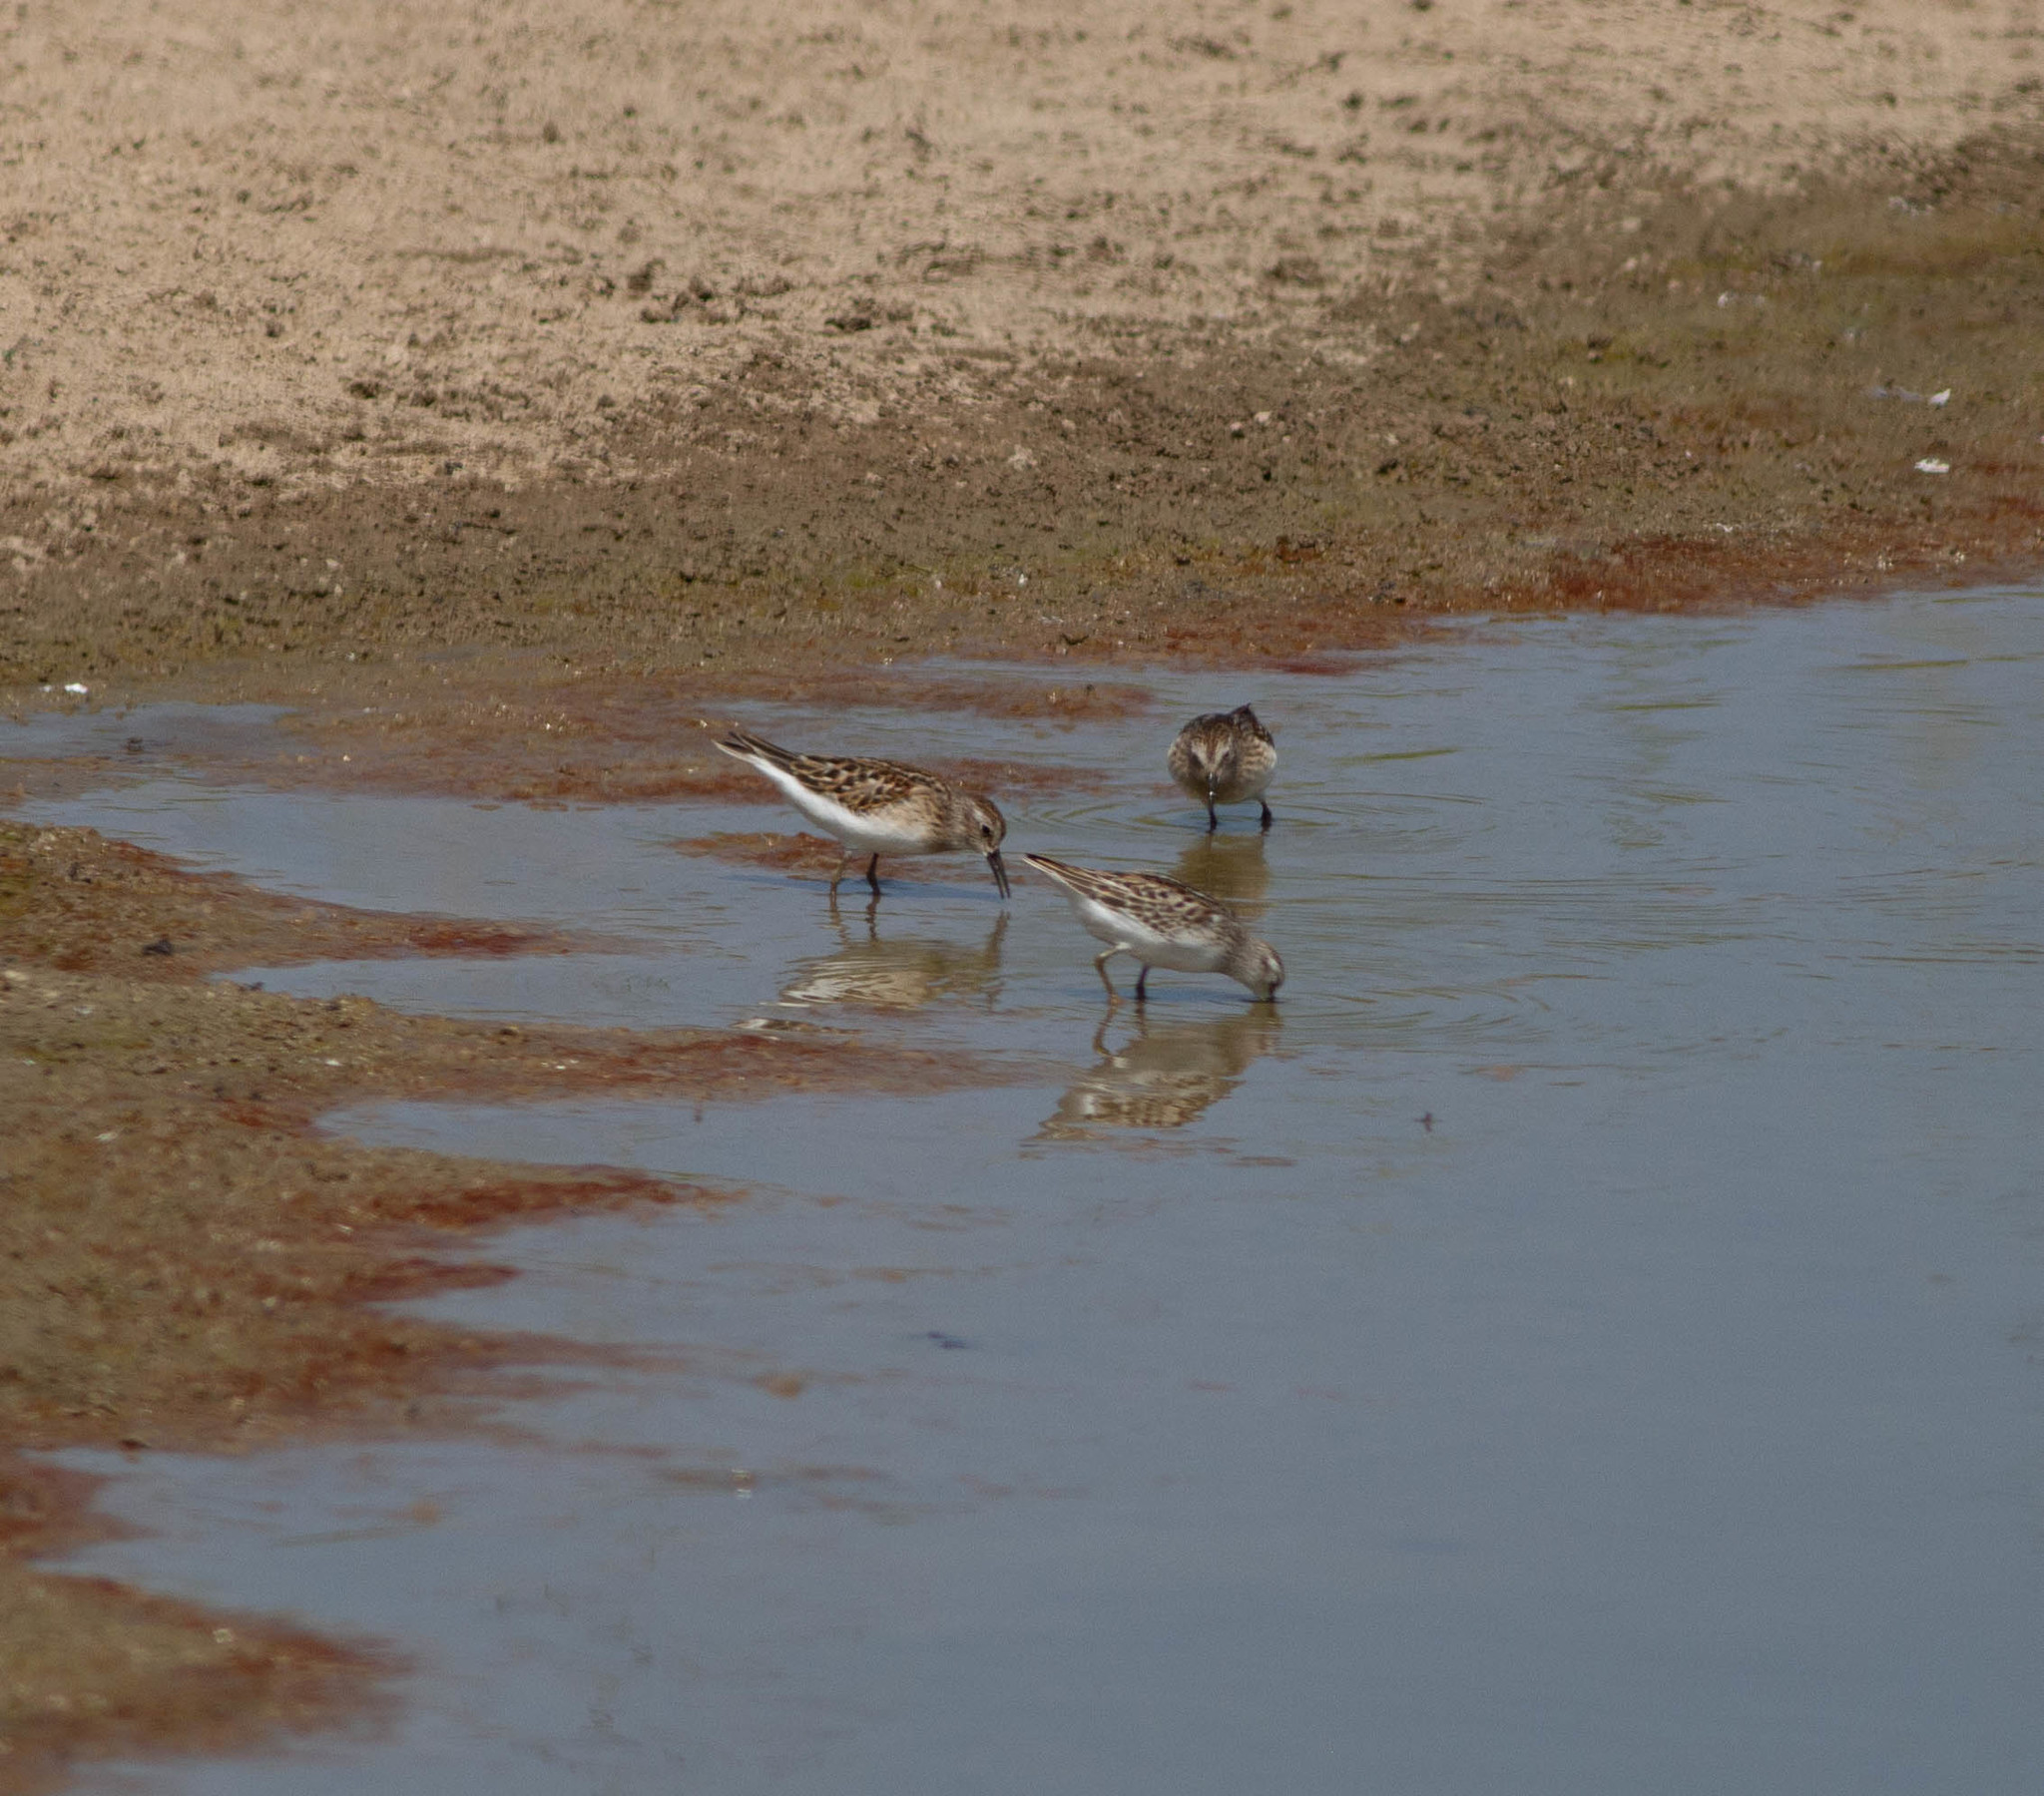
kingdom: Animalia
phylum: Chordata
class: Aves
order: Charadriiformes
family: Scolopacidae
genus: Calidris
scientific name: Calidris minutilla
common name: Least sandpiper
